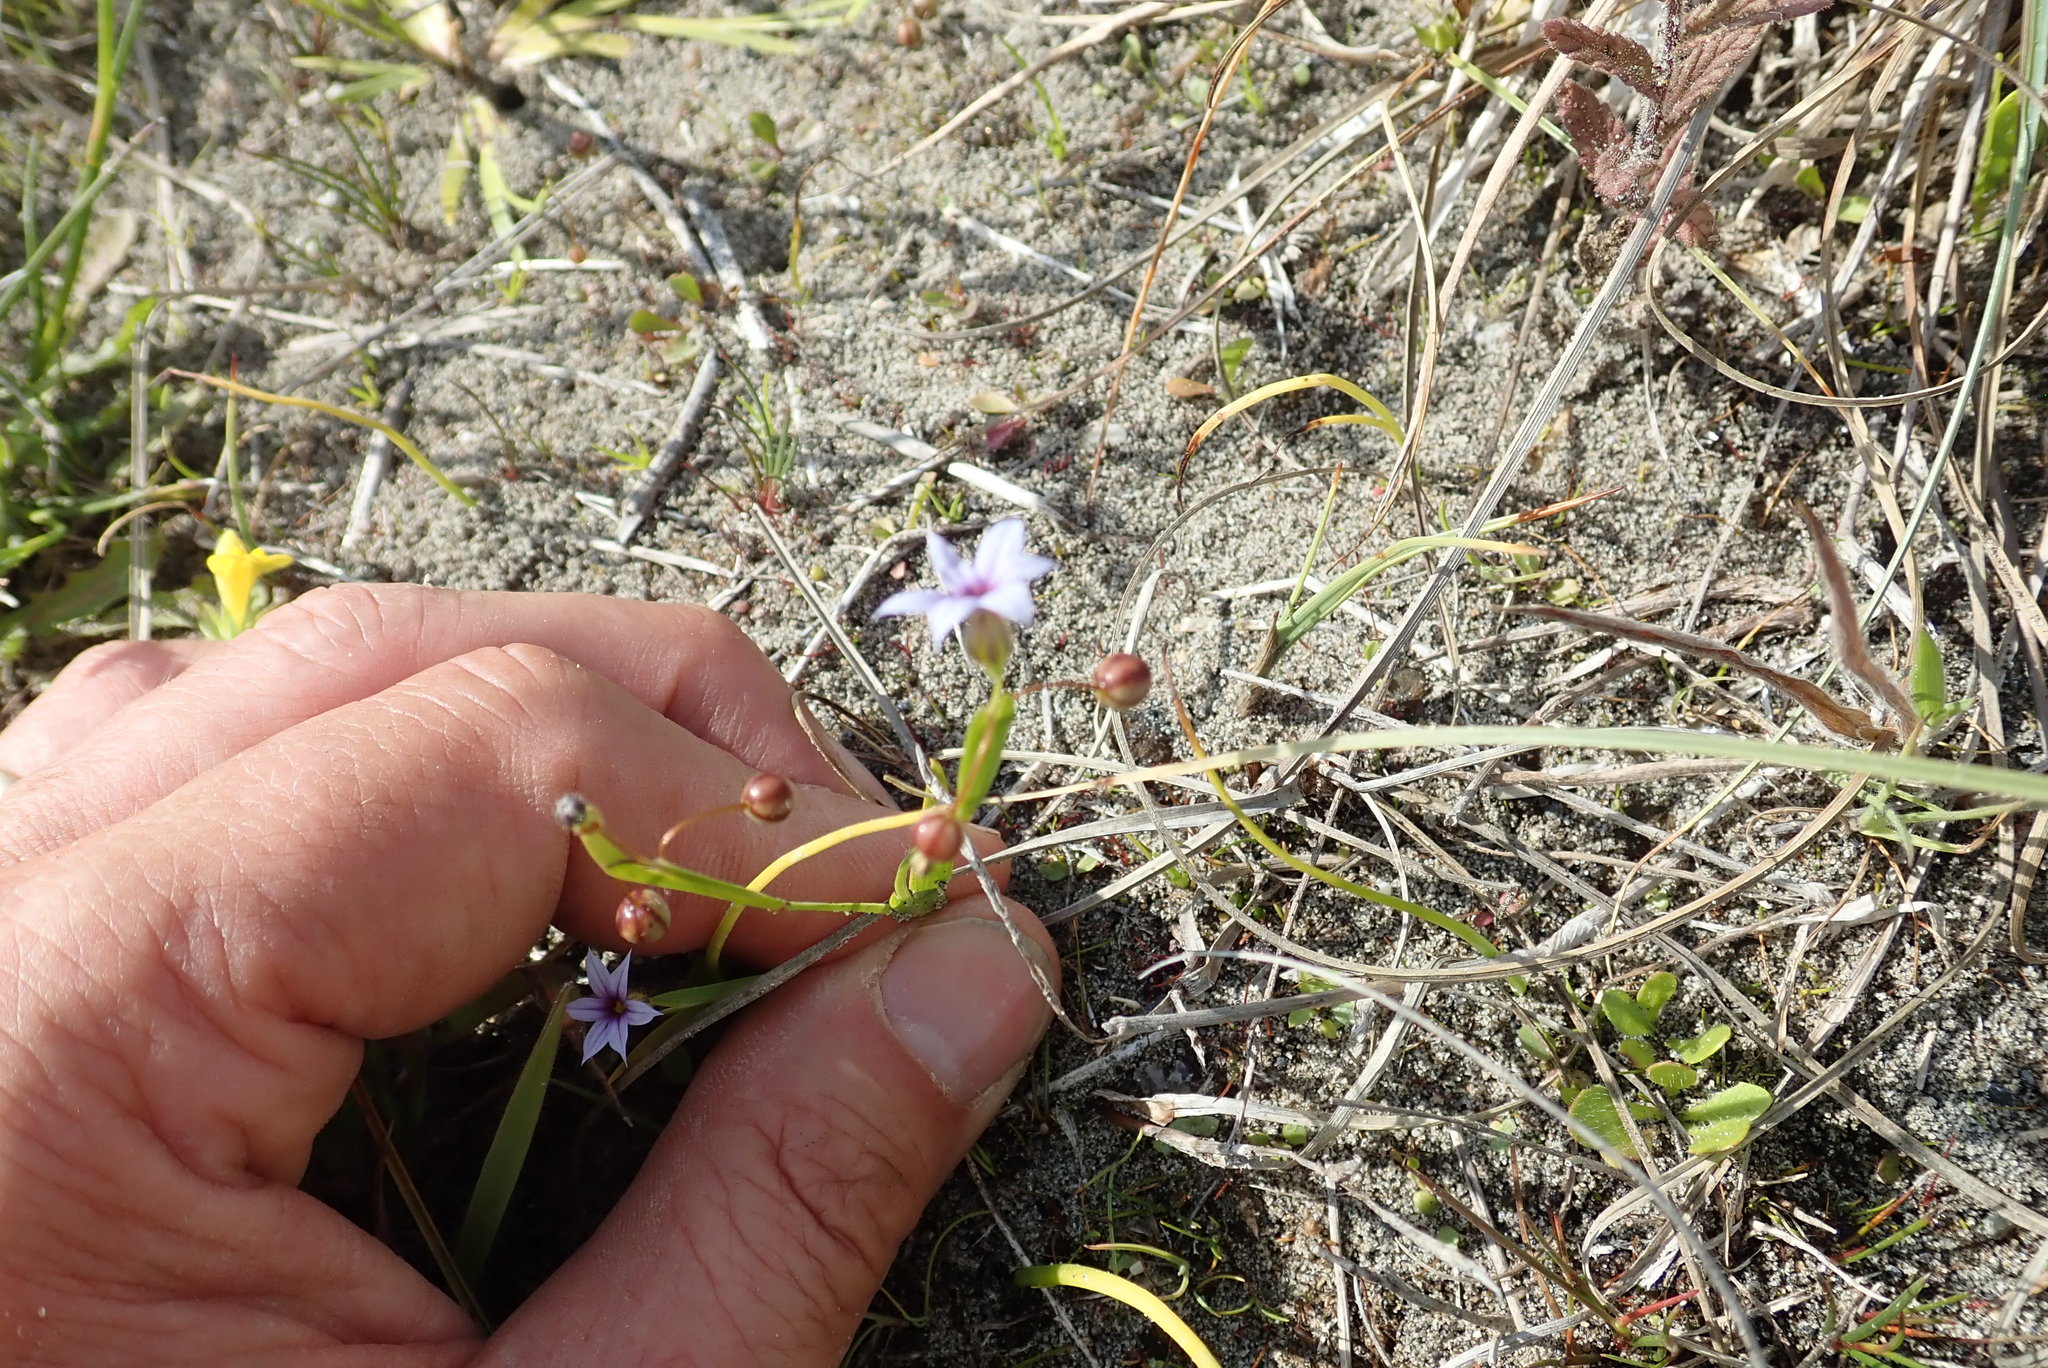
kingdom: Plantae
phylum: Tracheophyta
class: Liliopsida
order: Asparagales
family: Iridaceae
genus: Sisyrinchium
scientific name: Sisyrinchium micranthum
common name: Bermuda pigroot
